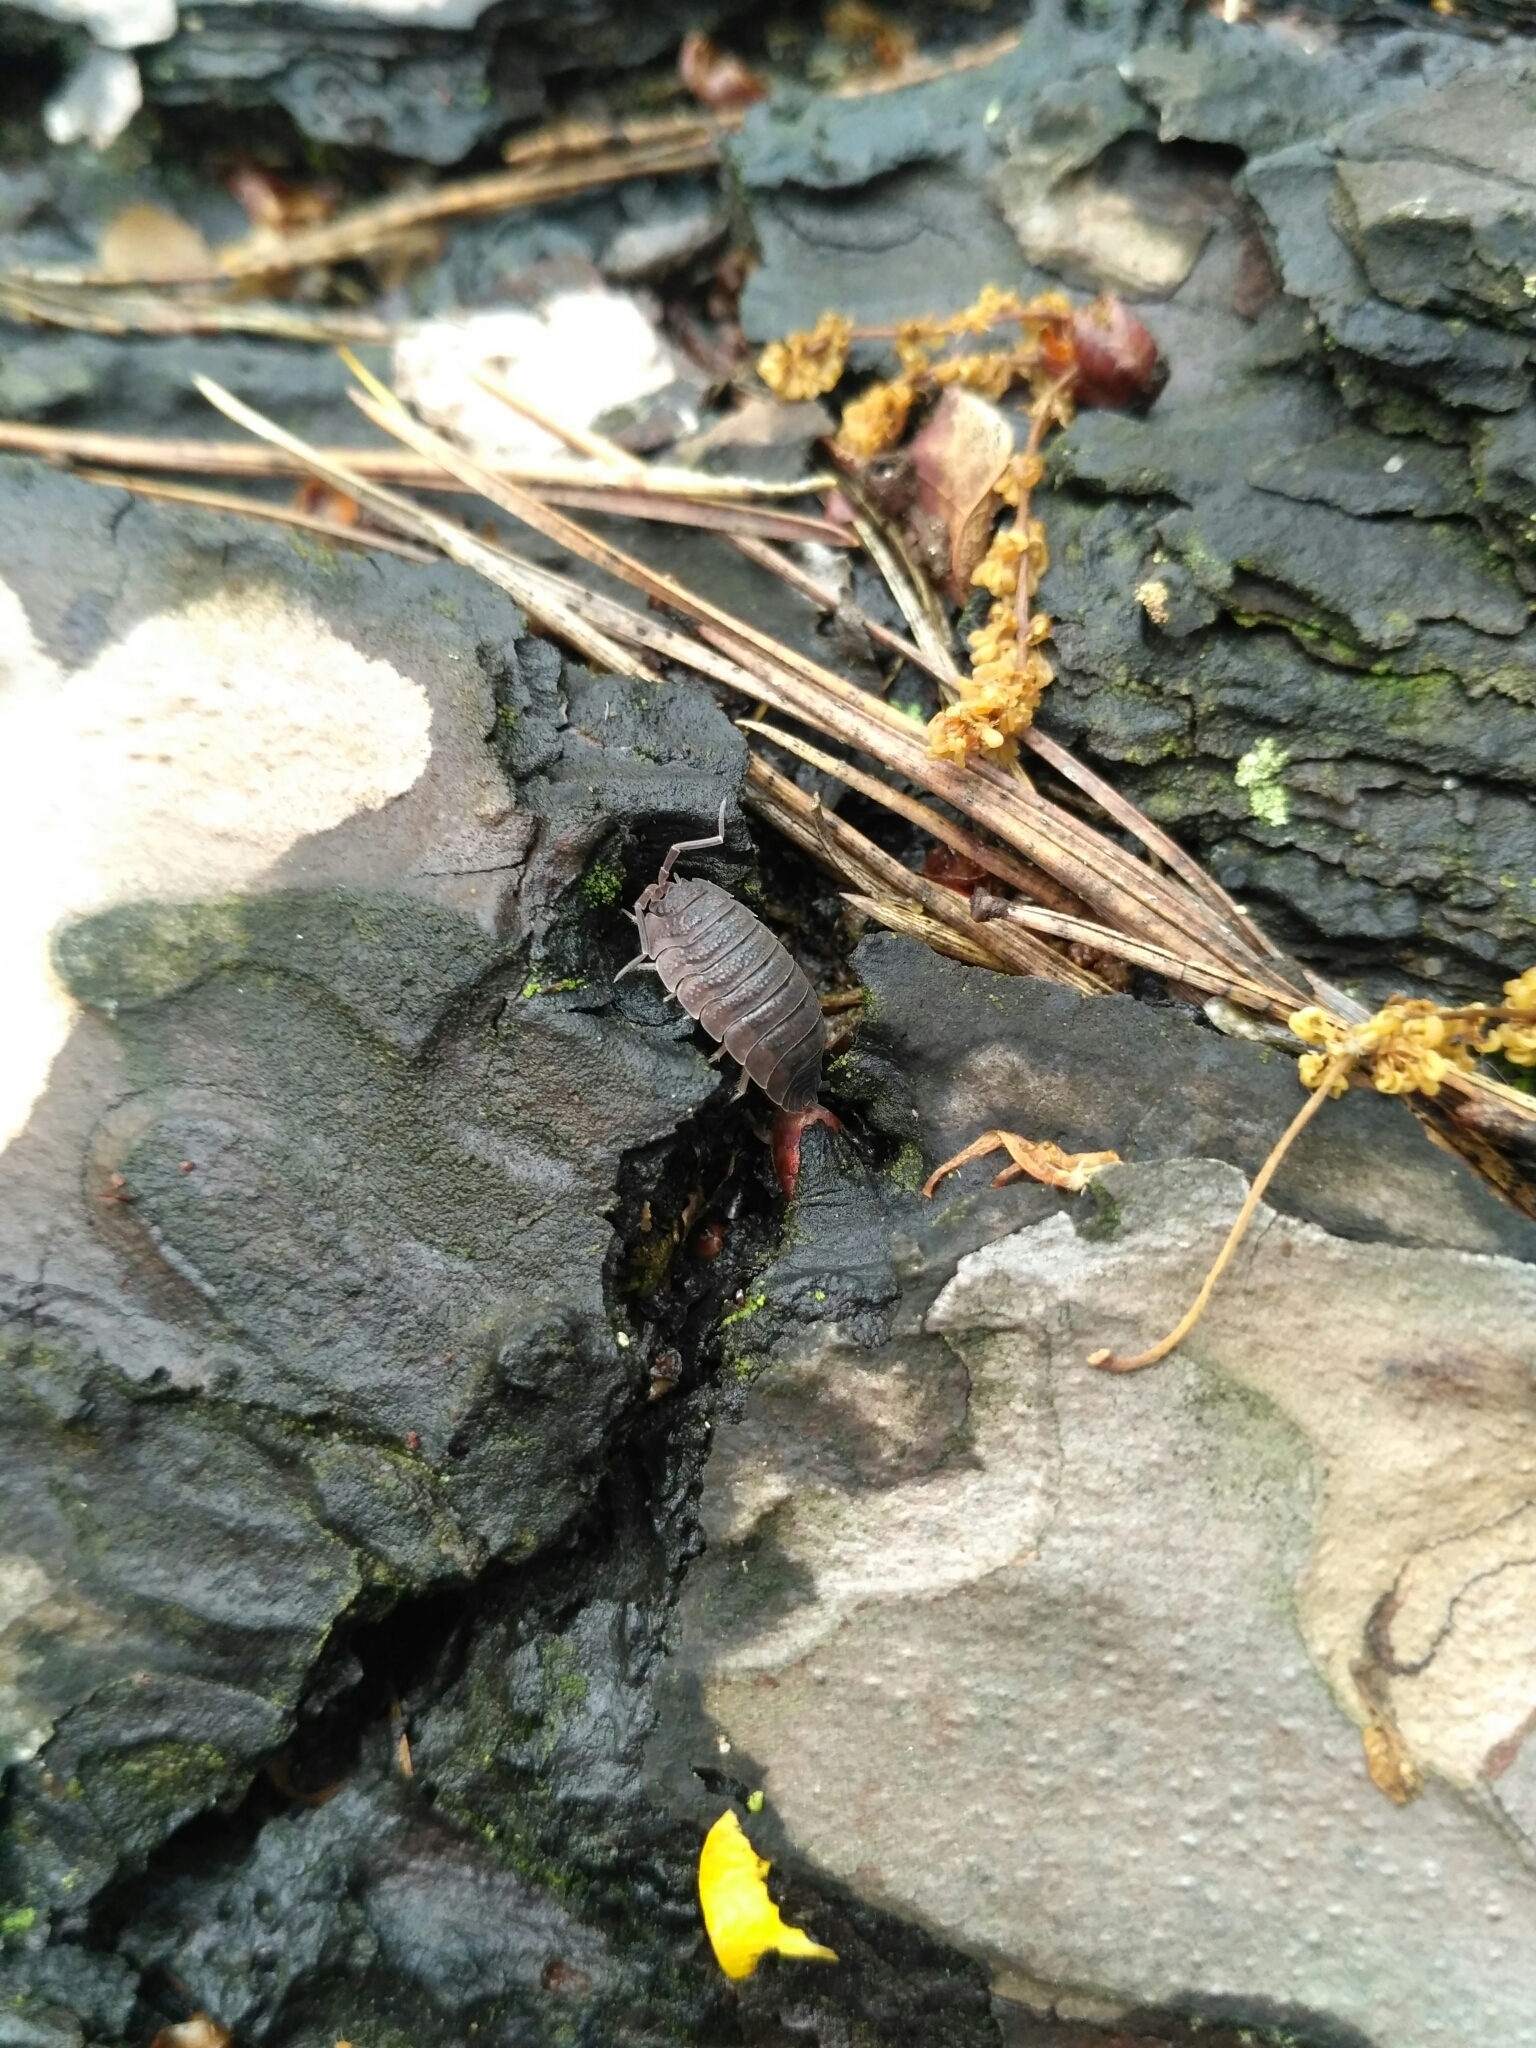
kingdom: Animalia
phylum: Arthropoda
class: Malacostraca
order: Isopoda
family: Porcellionidae
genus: Porcellio
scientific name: Porcellio scaber
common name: Common rough woodlouse
